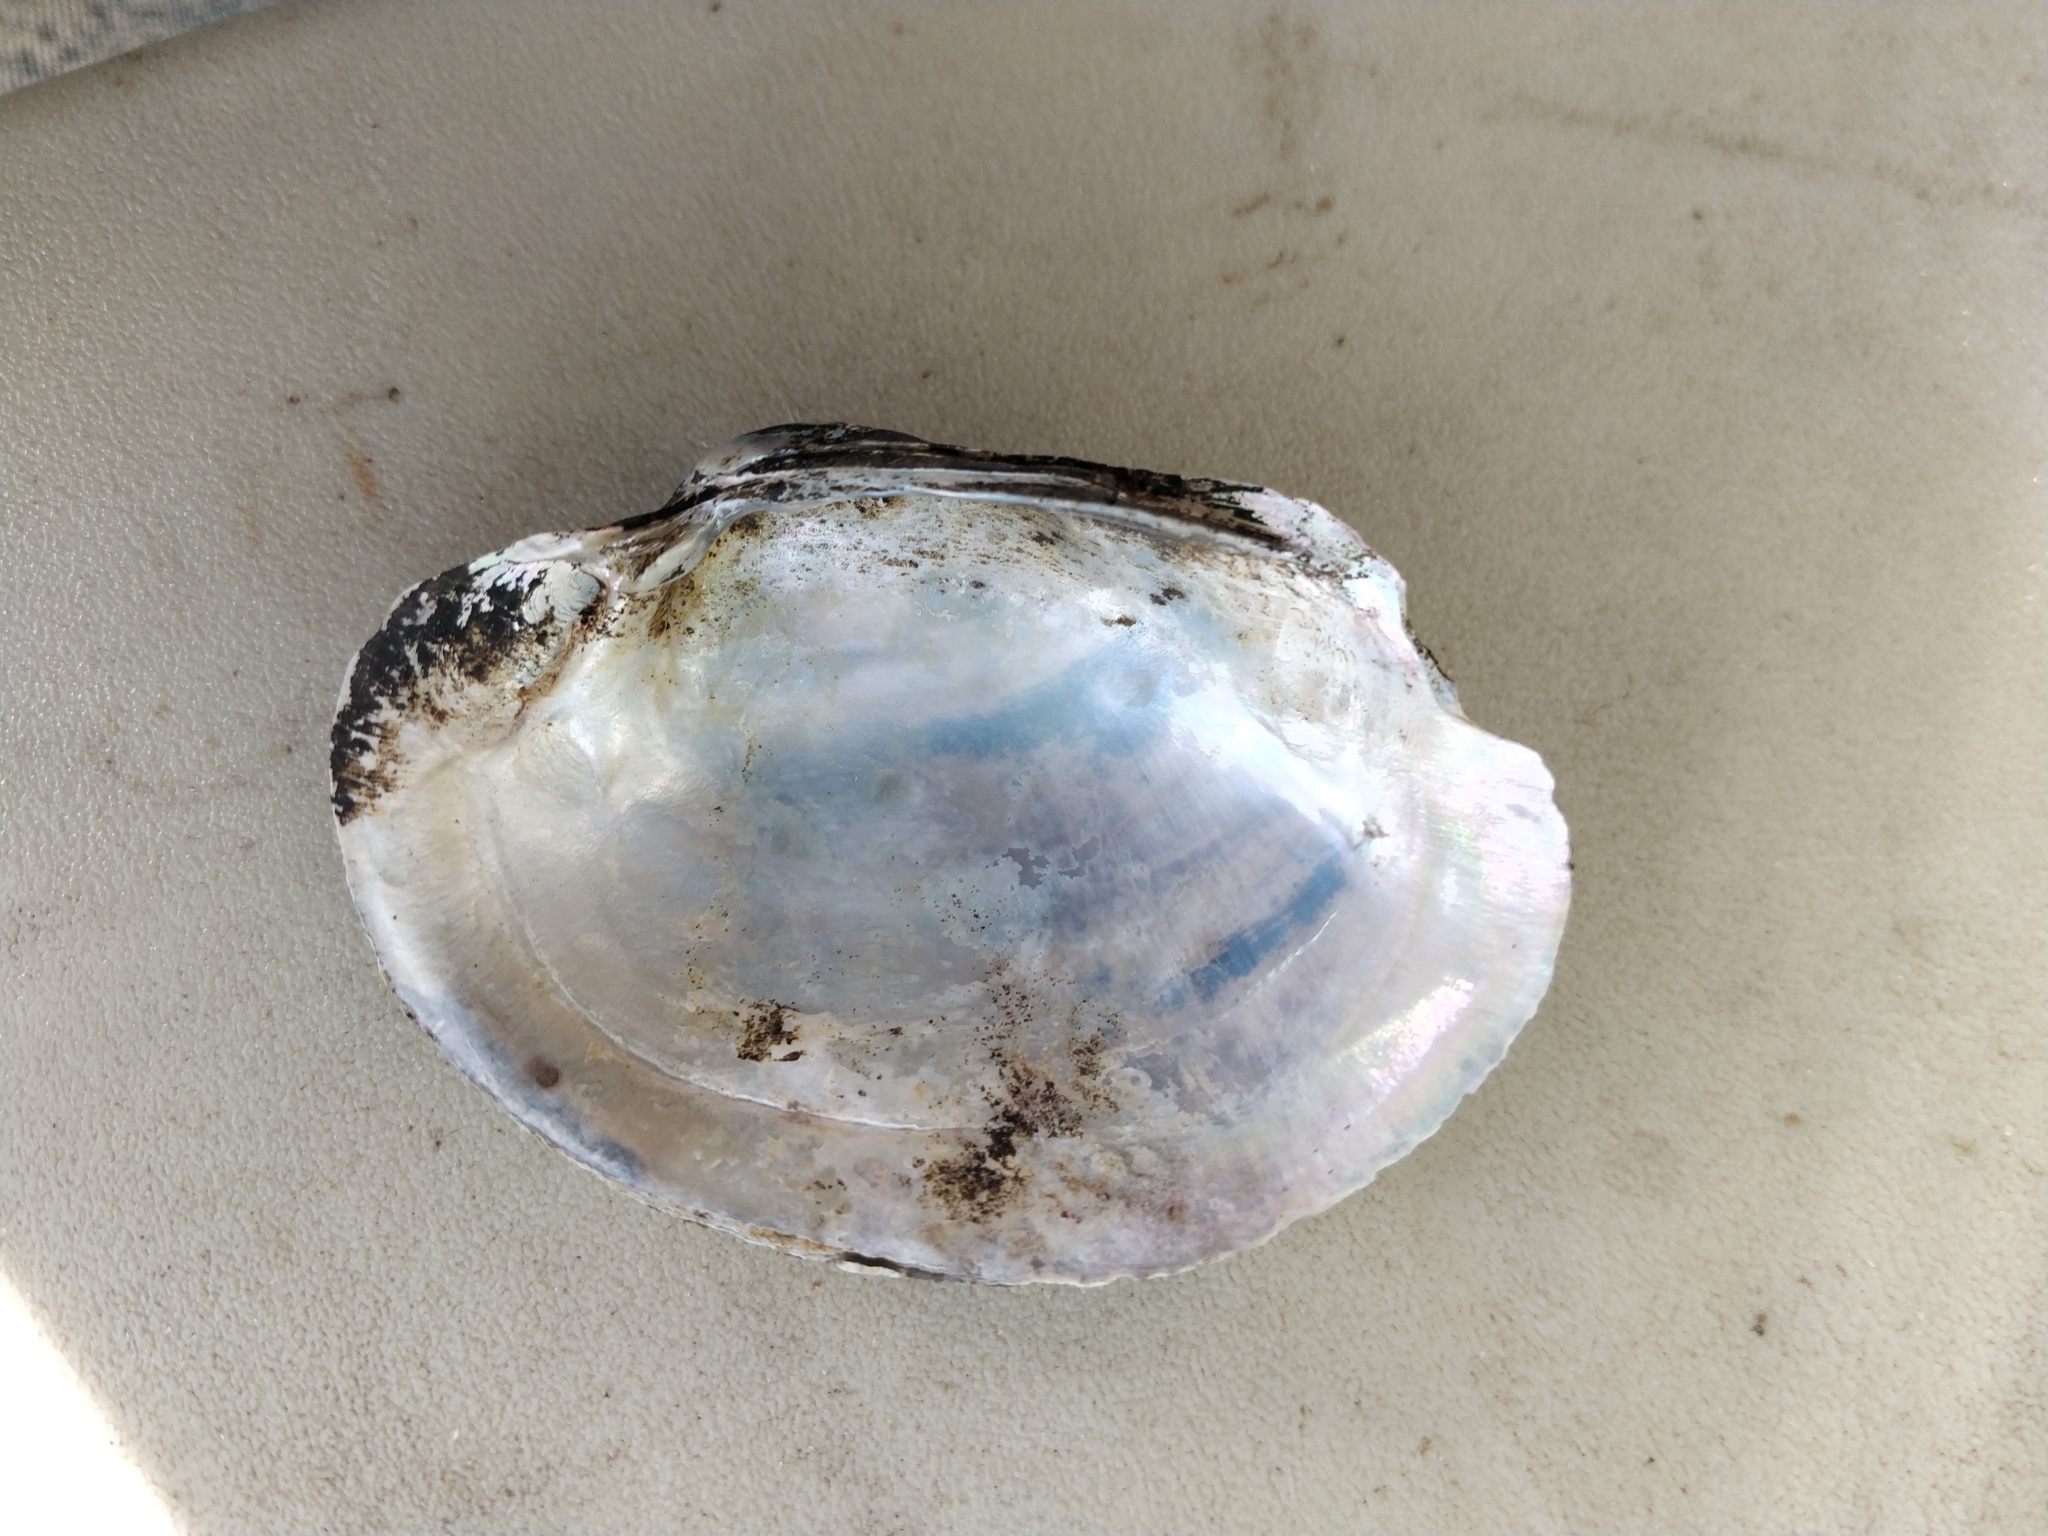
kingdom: Animalia
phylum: Mollusca
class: Bivalvia
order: Unionida
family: Unionidae
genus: Lampsilis
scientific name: Lampsilis cardium
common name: Plain pocketbook
